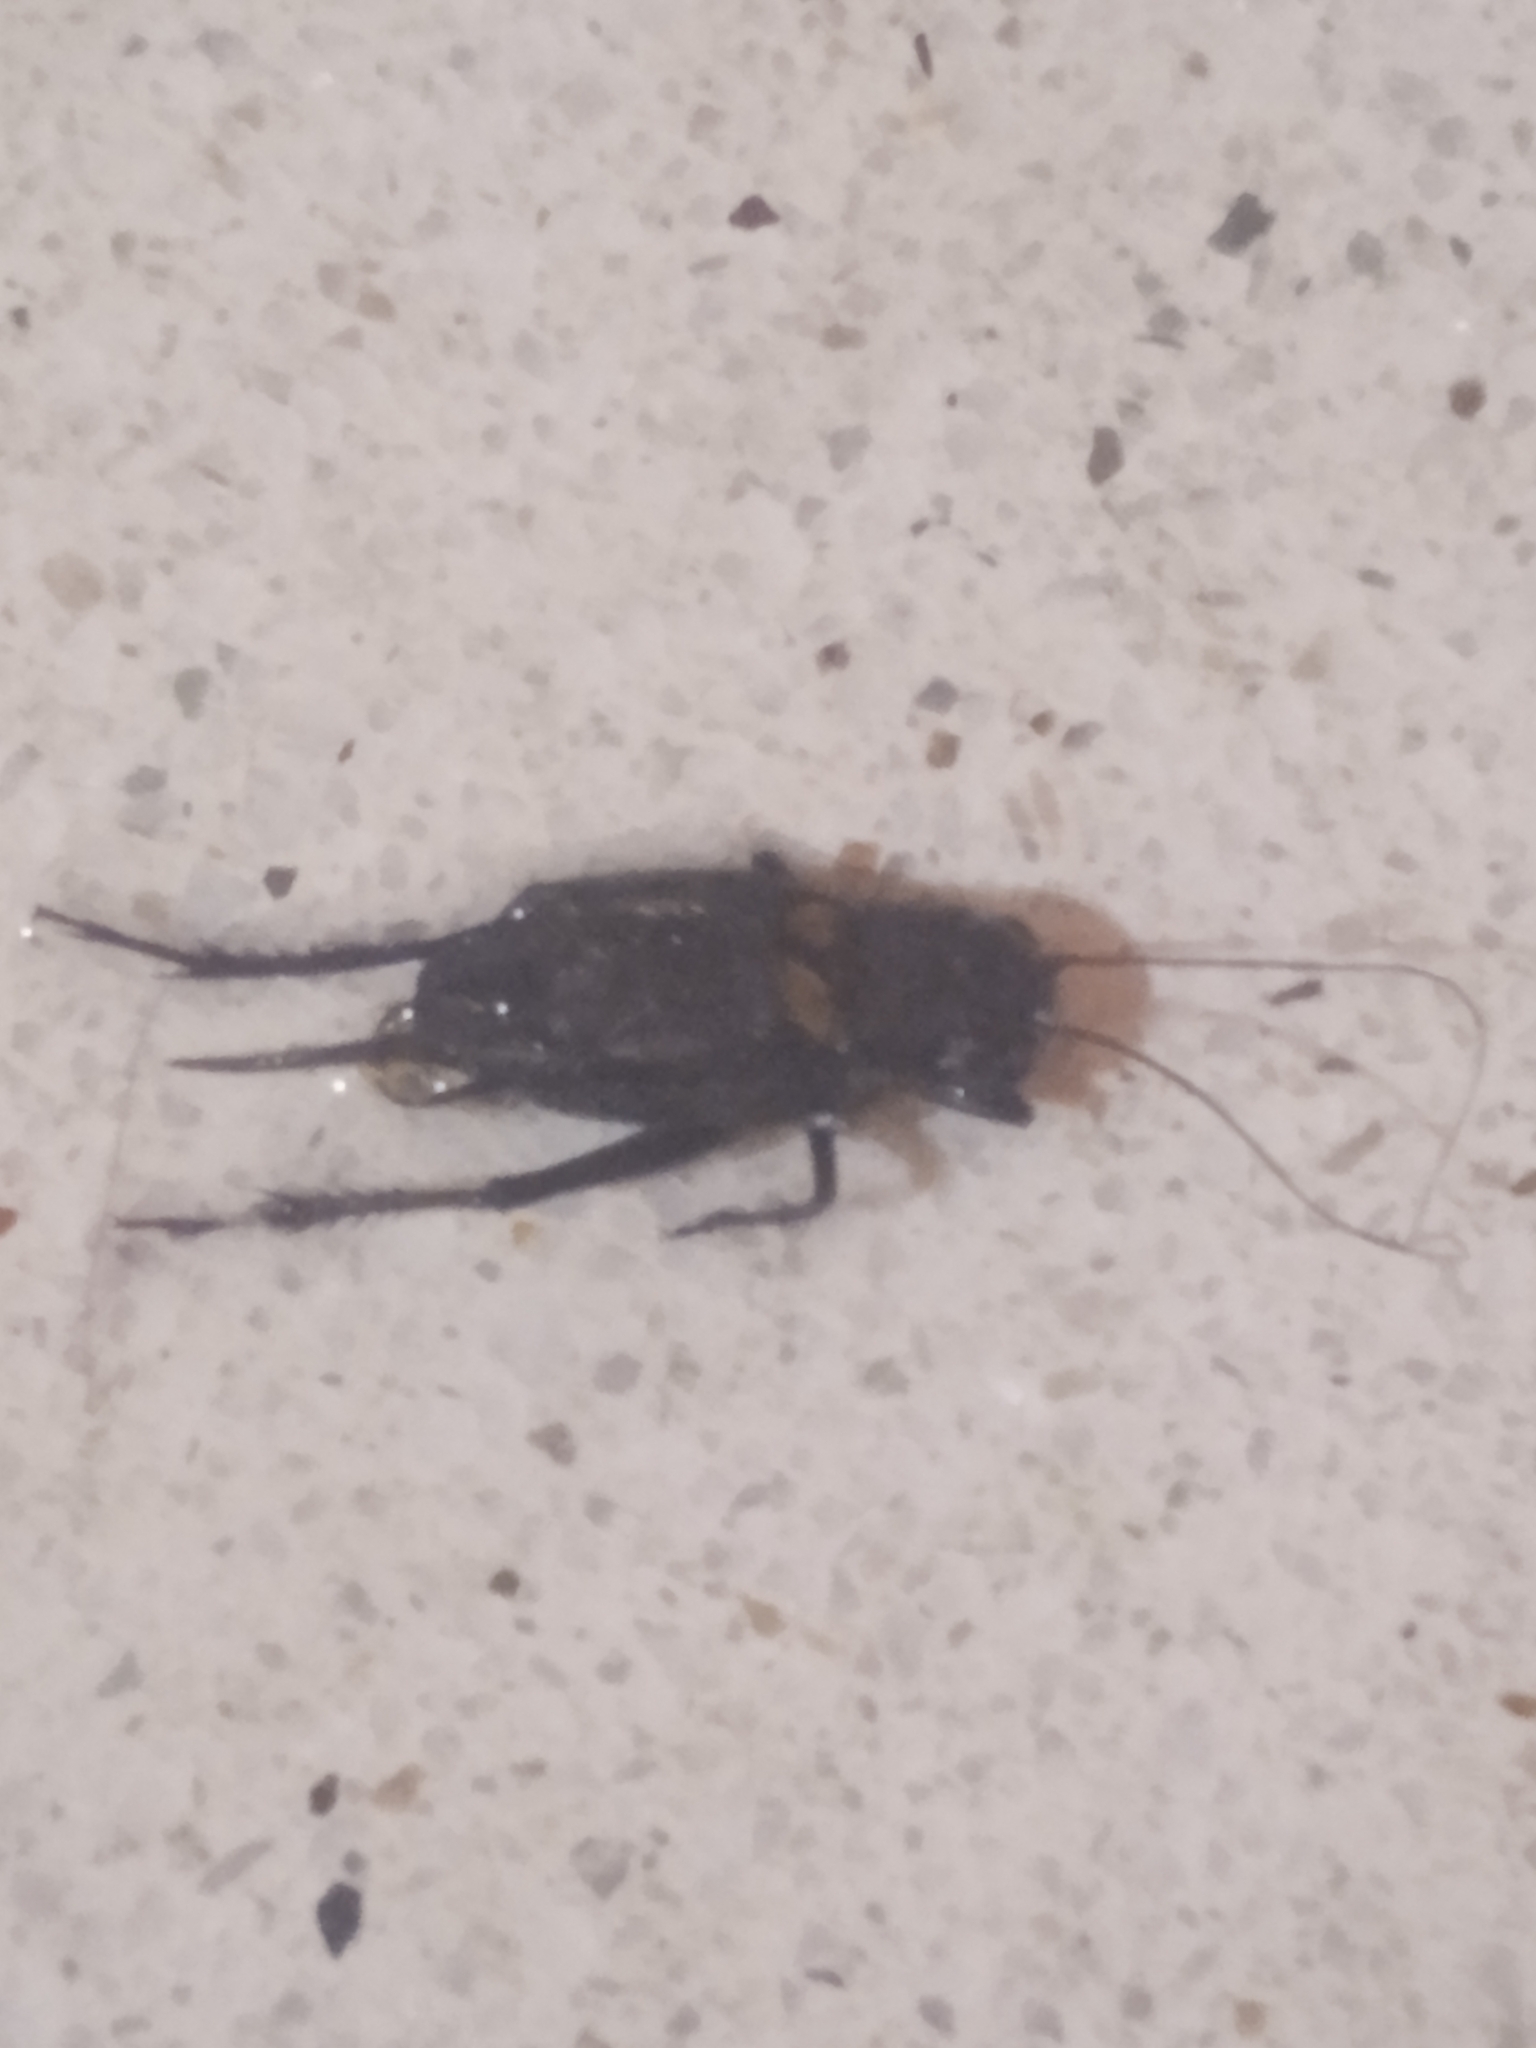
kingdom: Animalia
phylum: Arthropoda
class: Insecta
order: Orthoptera
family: Gryllidae
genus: Gryllus
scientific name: Gryllus bimaculatus
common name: Two-spotted cricket
